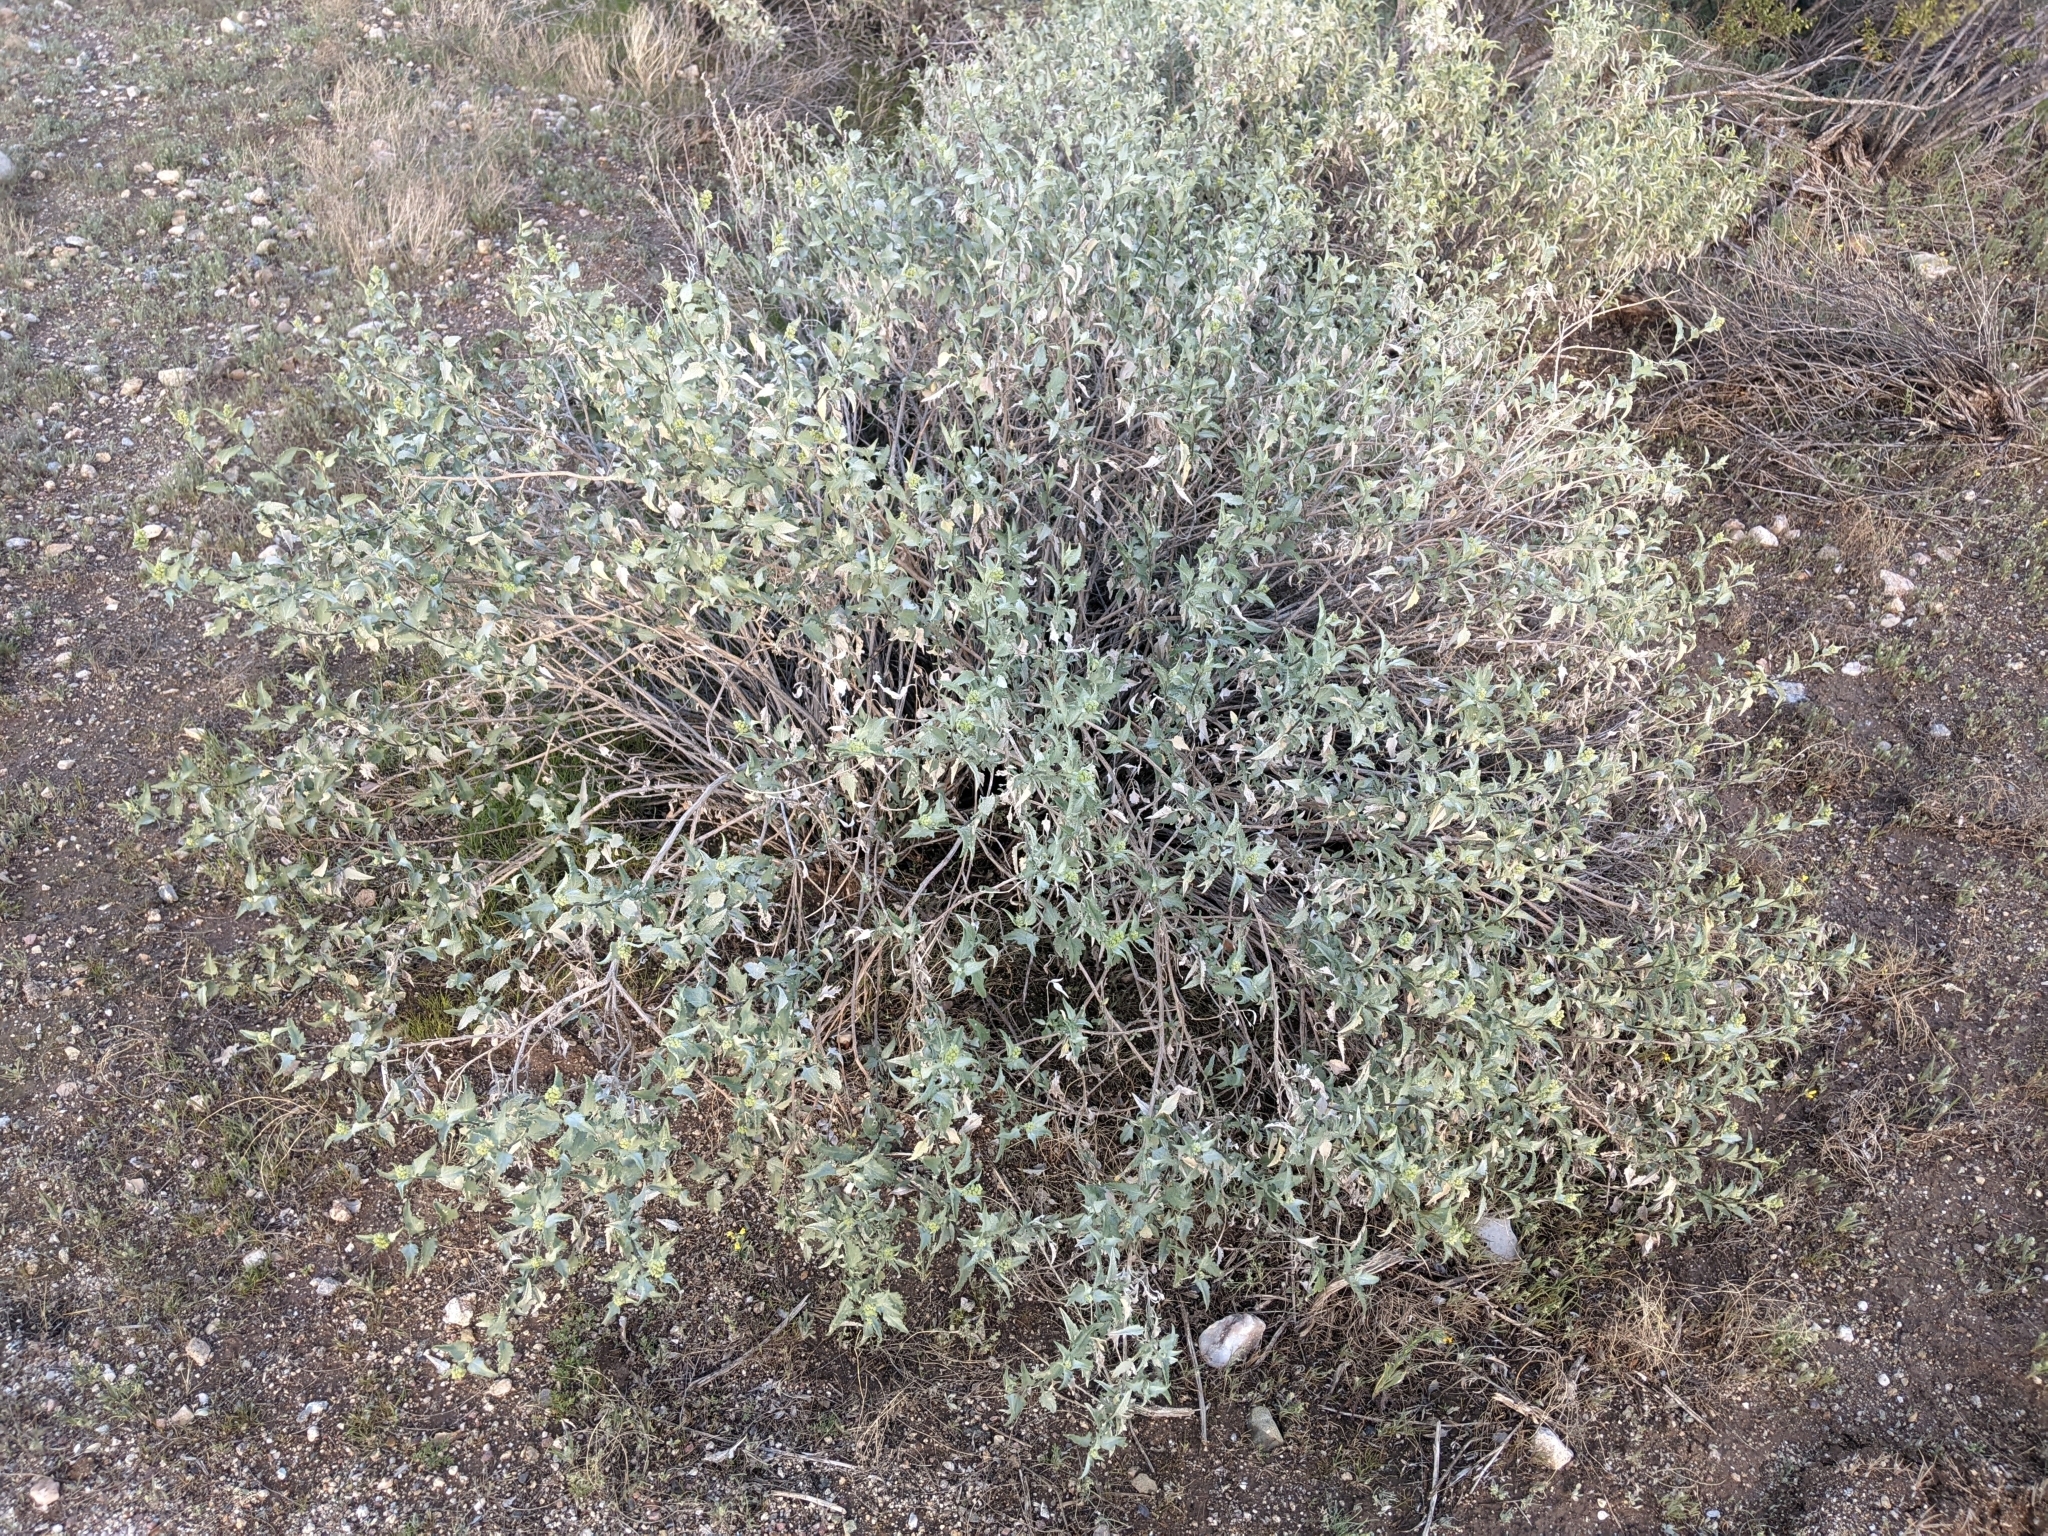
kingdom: Plantae
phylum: Tracheophyta
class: Magnoliopsida
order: Asterales
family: Asteraceae
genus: Ambrosia
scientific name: Ambrosia deltoidea
